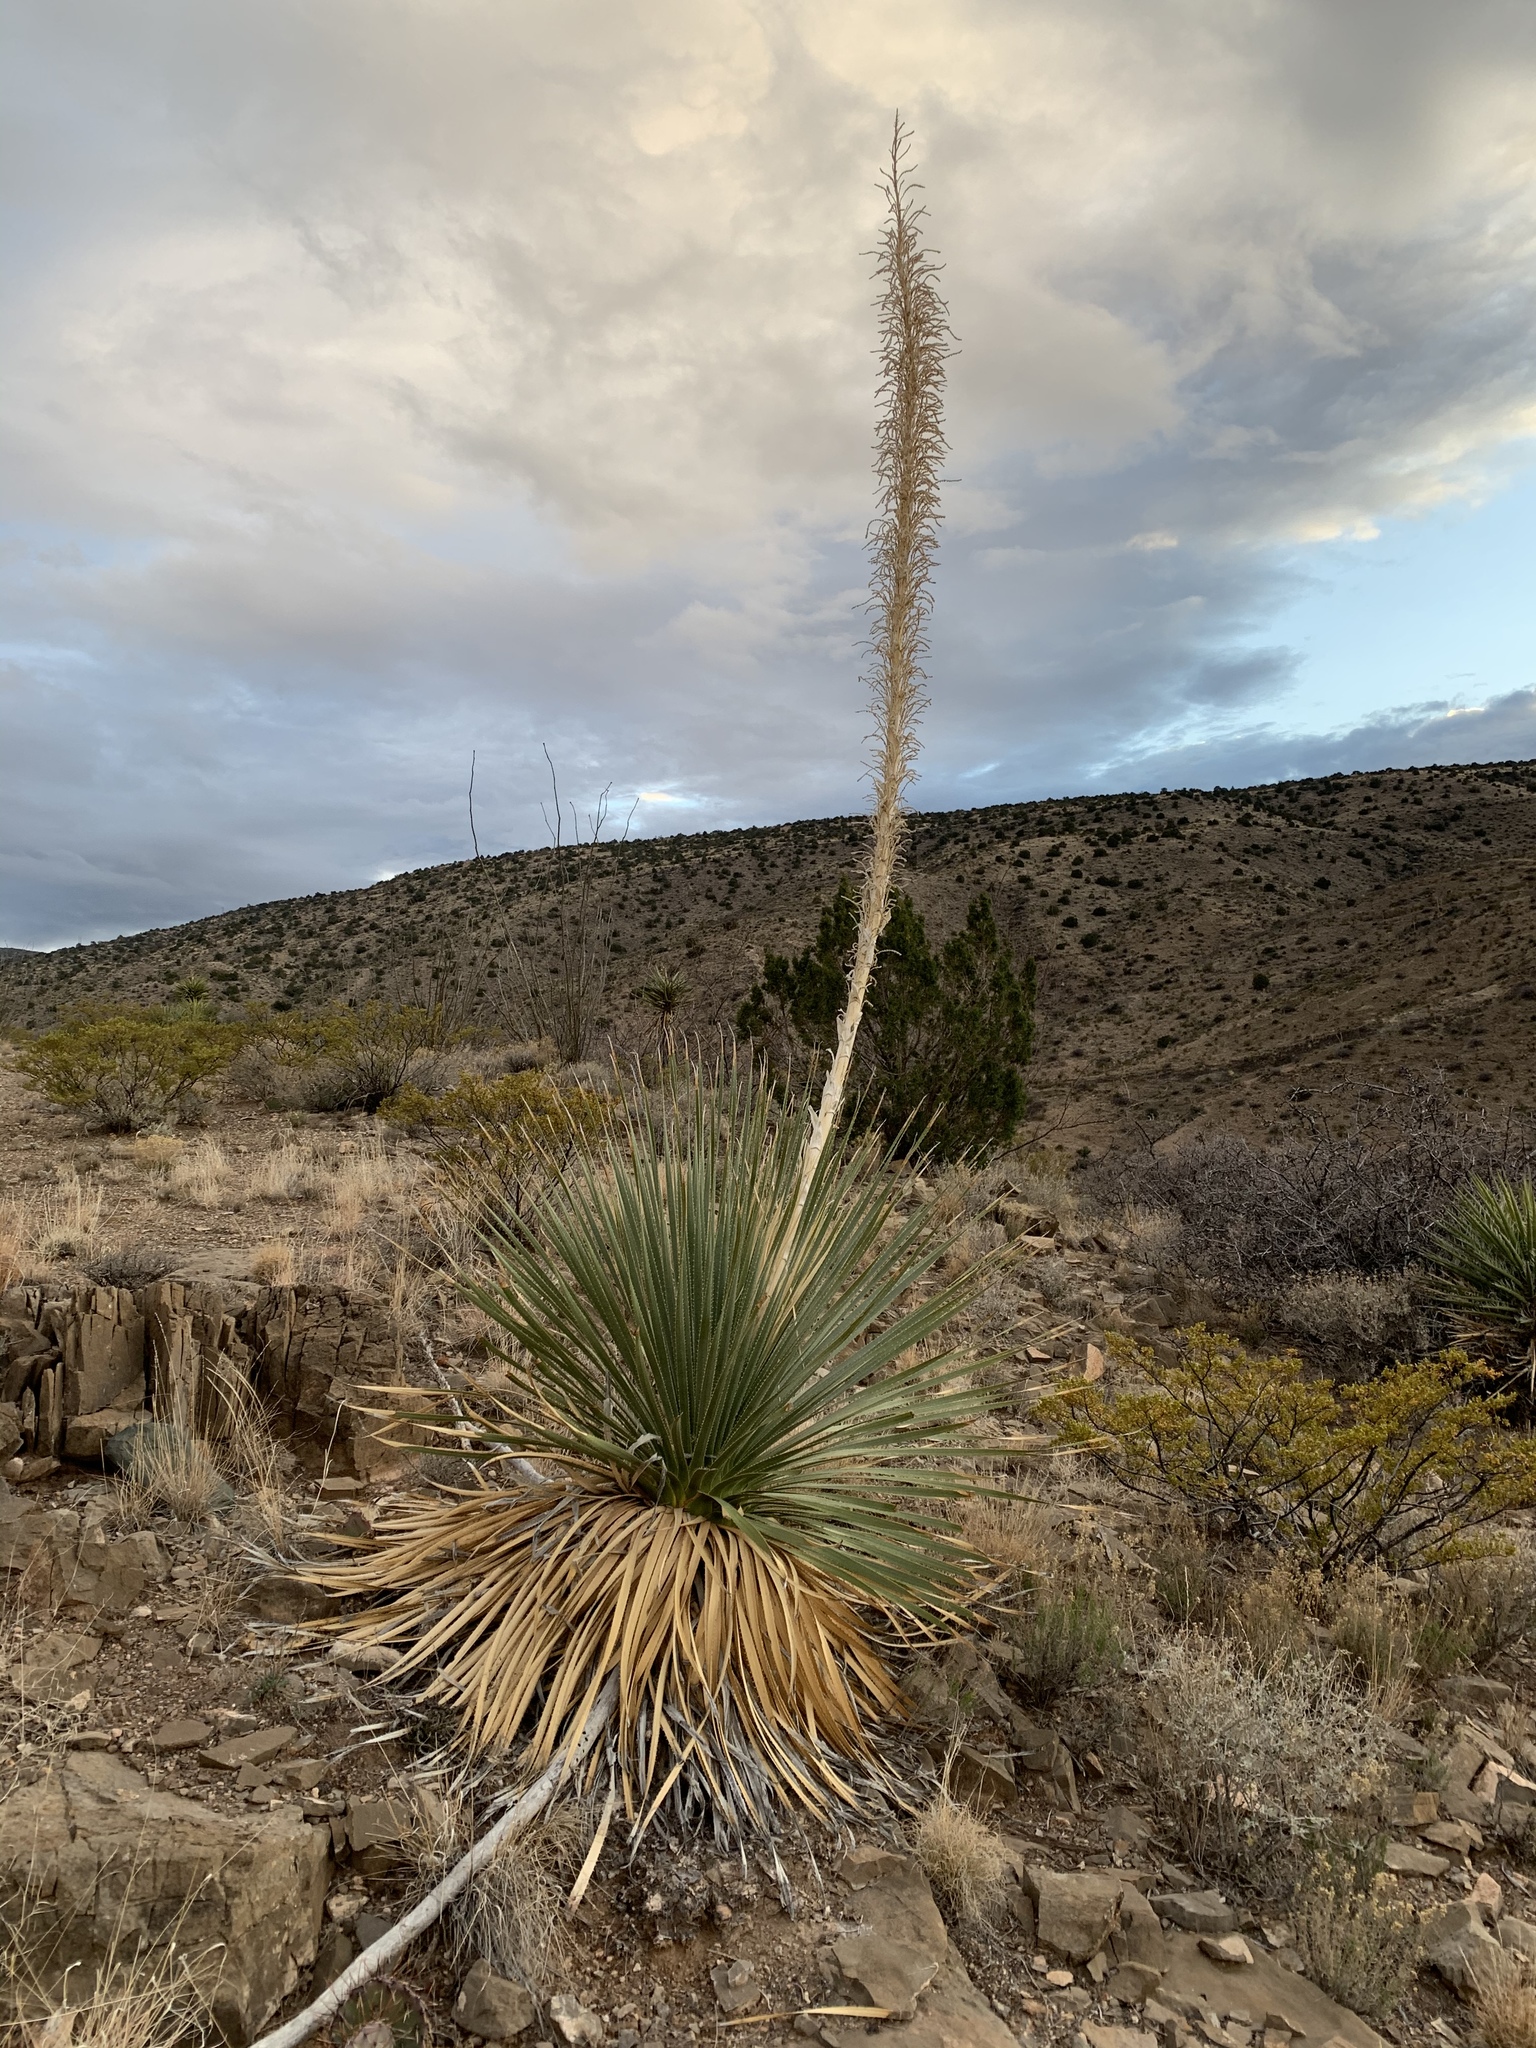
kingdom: Plantae
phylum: Tracheophyta
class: Liliopsida
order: Asparagales
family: Asparagaceae
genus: Dasylirion
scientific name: Dasylirion wheeleri
